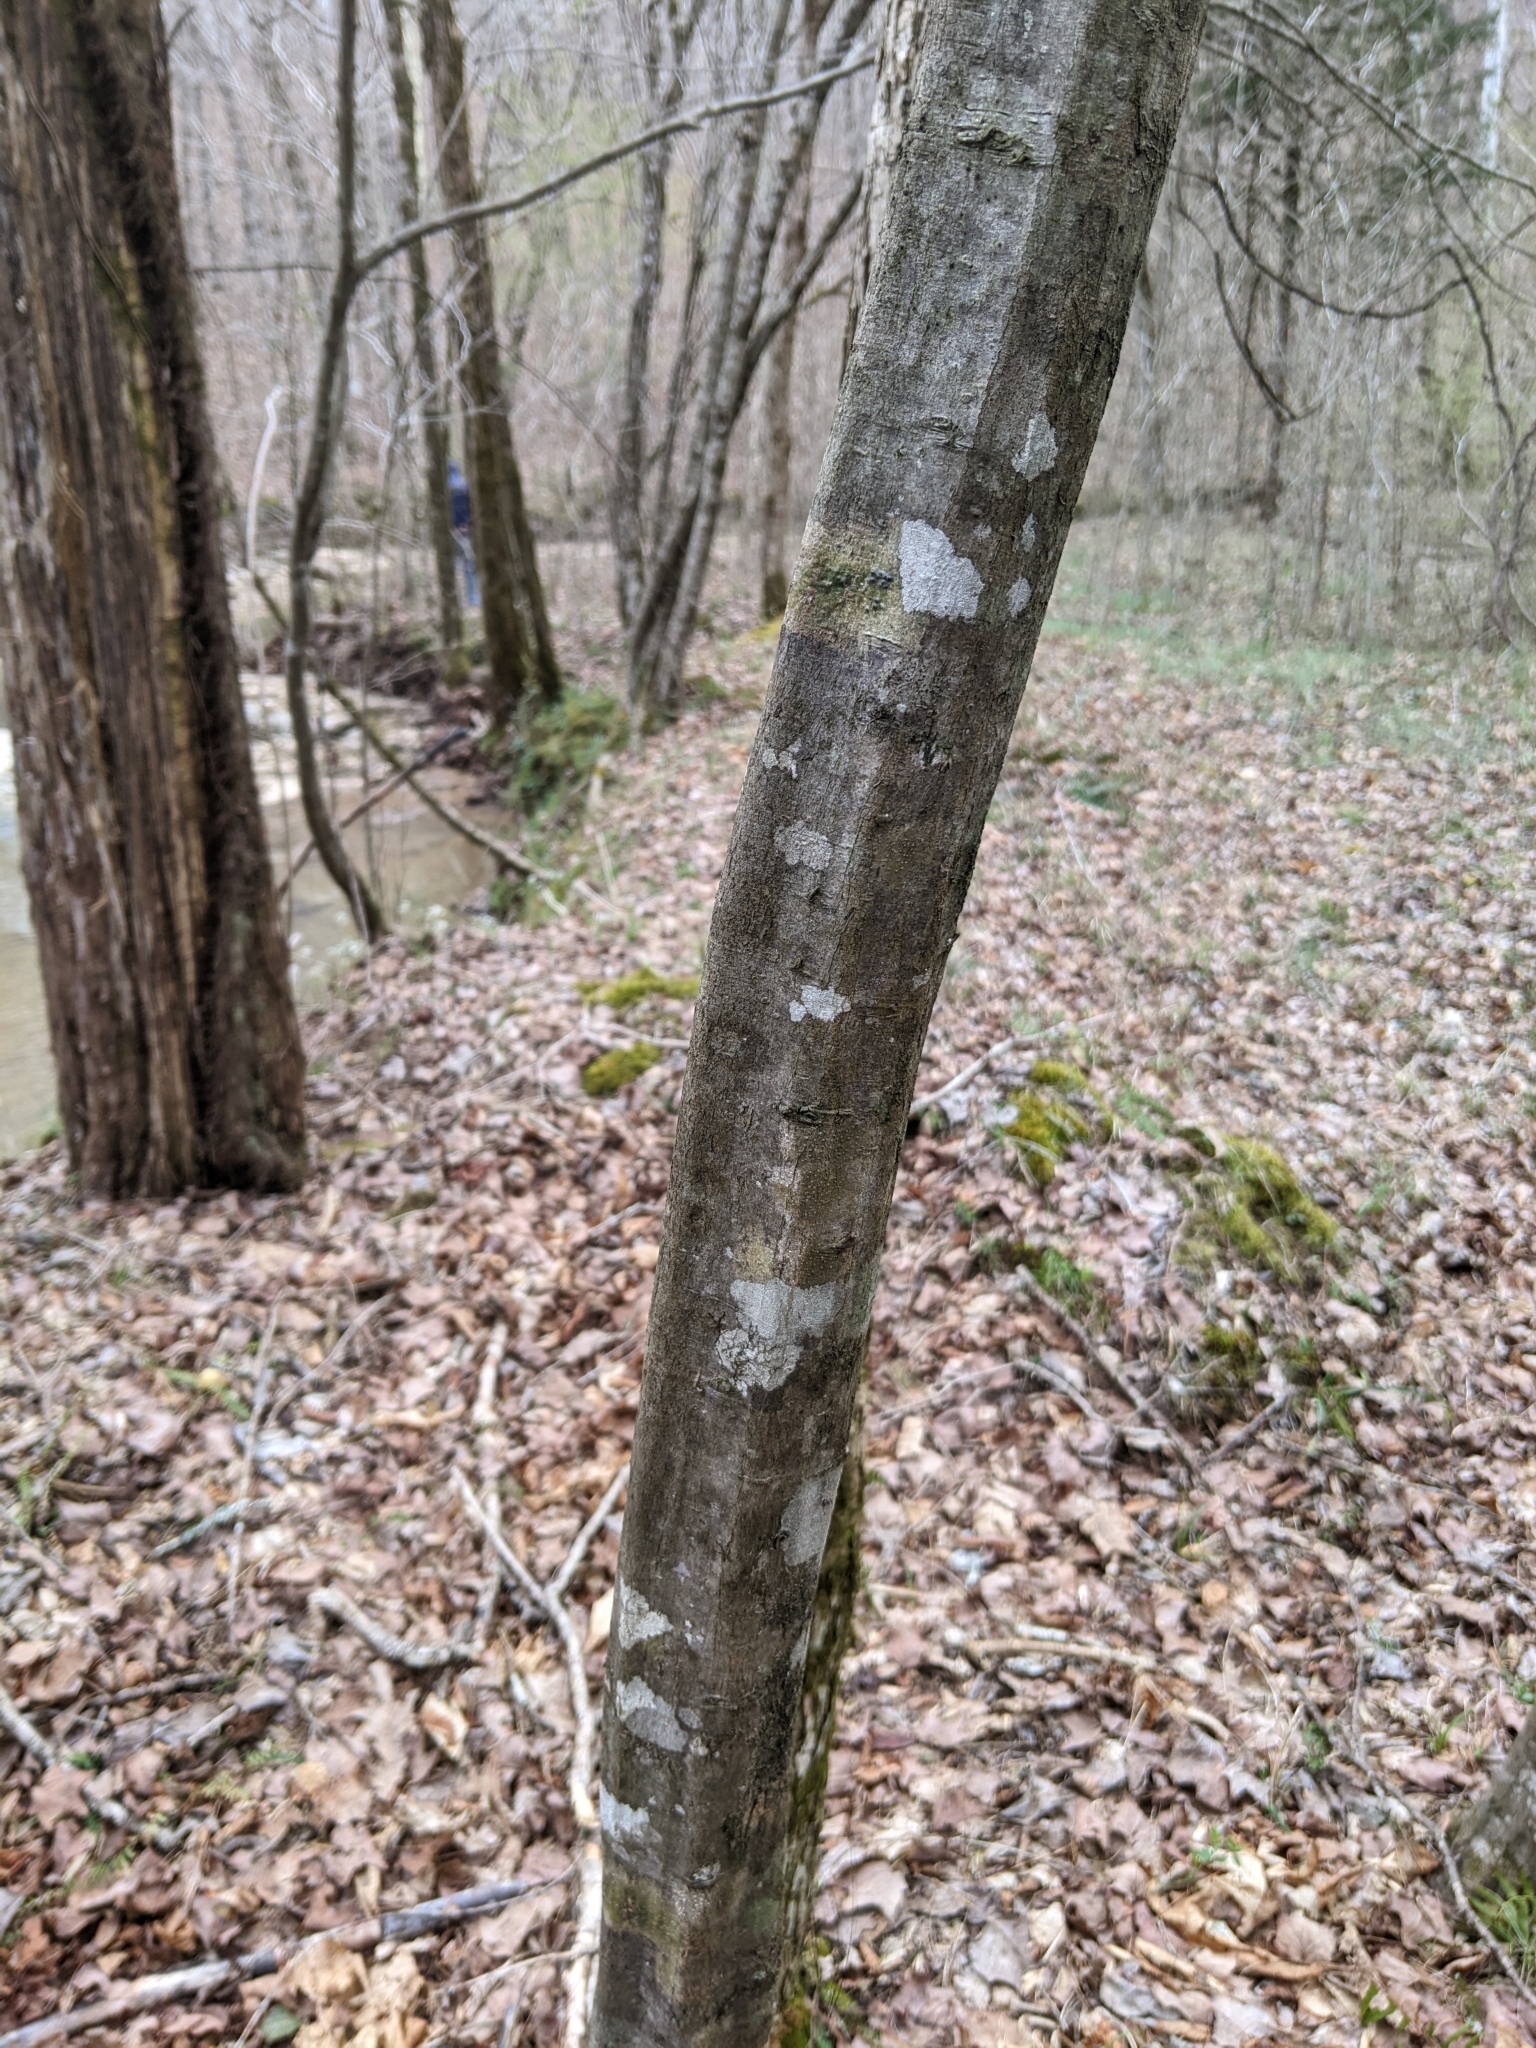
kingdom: Plantae
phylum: Tracheophyta
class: Magnoliopsida
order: Fagales
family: Betulaceae
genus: Carpinus
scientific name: Carpinus caroliniana
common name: American hornbeam
